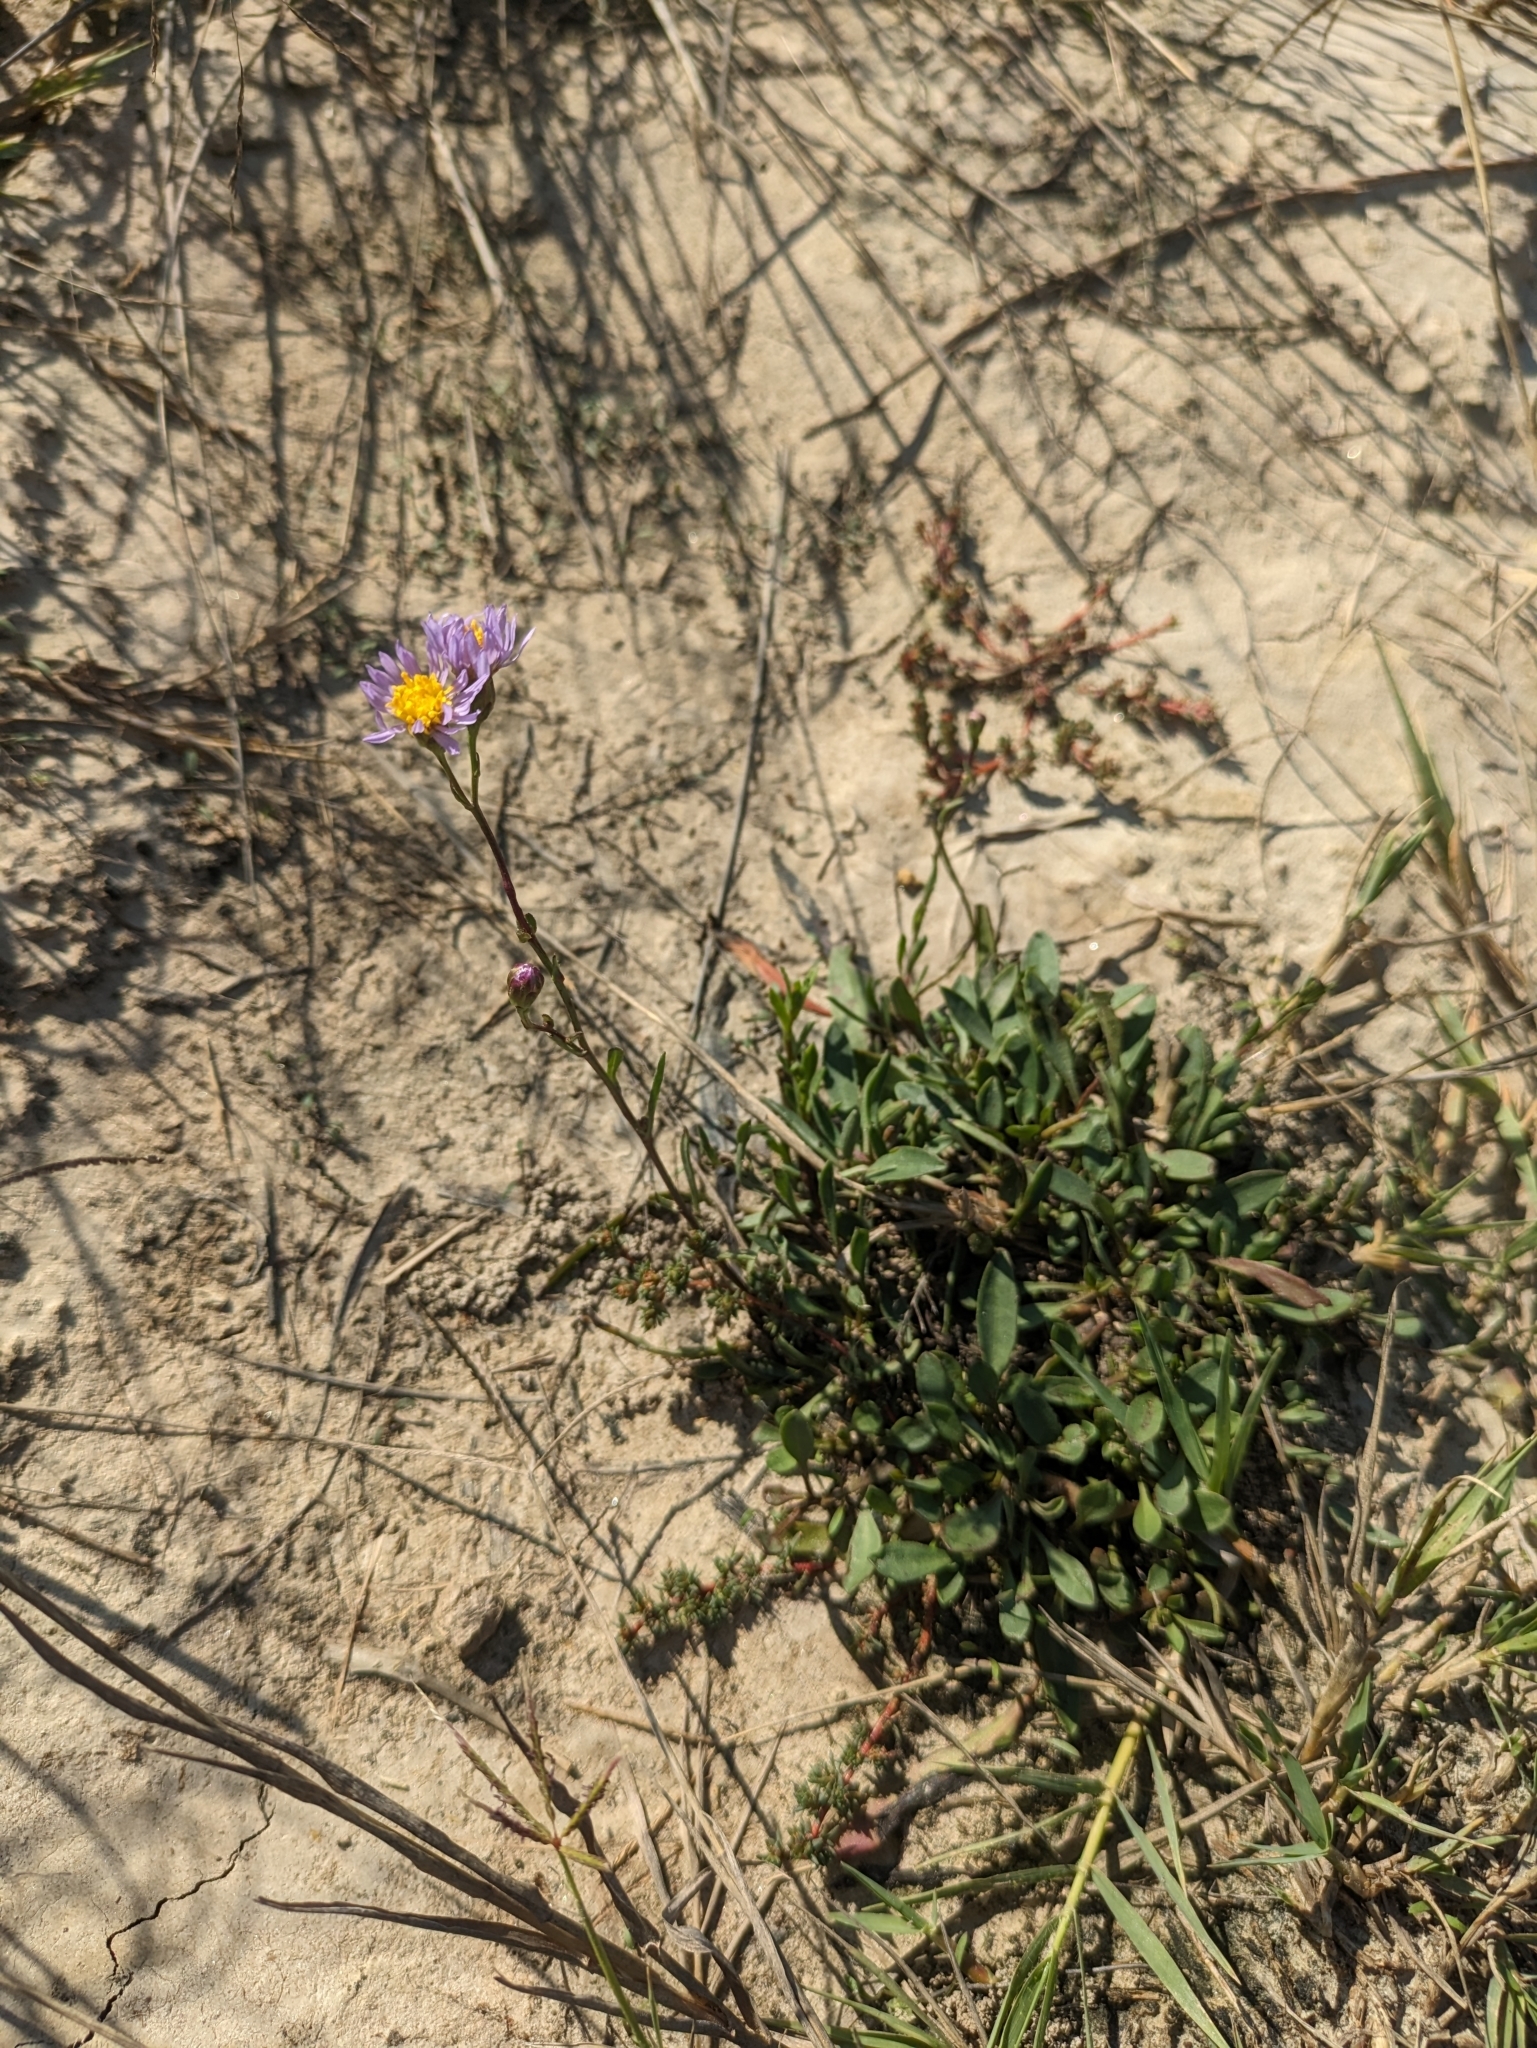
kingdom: Plantae
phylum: Tracheophyta
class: Magnoliopsida
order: Asterales
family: Asteraceae
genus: Tripolium
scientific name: Tripolium pannonicum
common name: Sea aster
